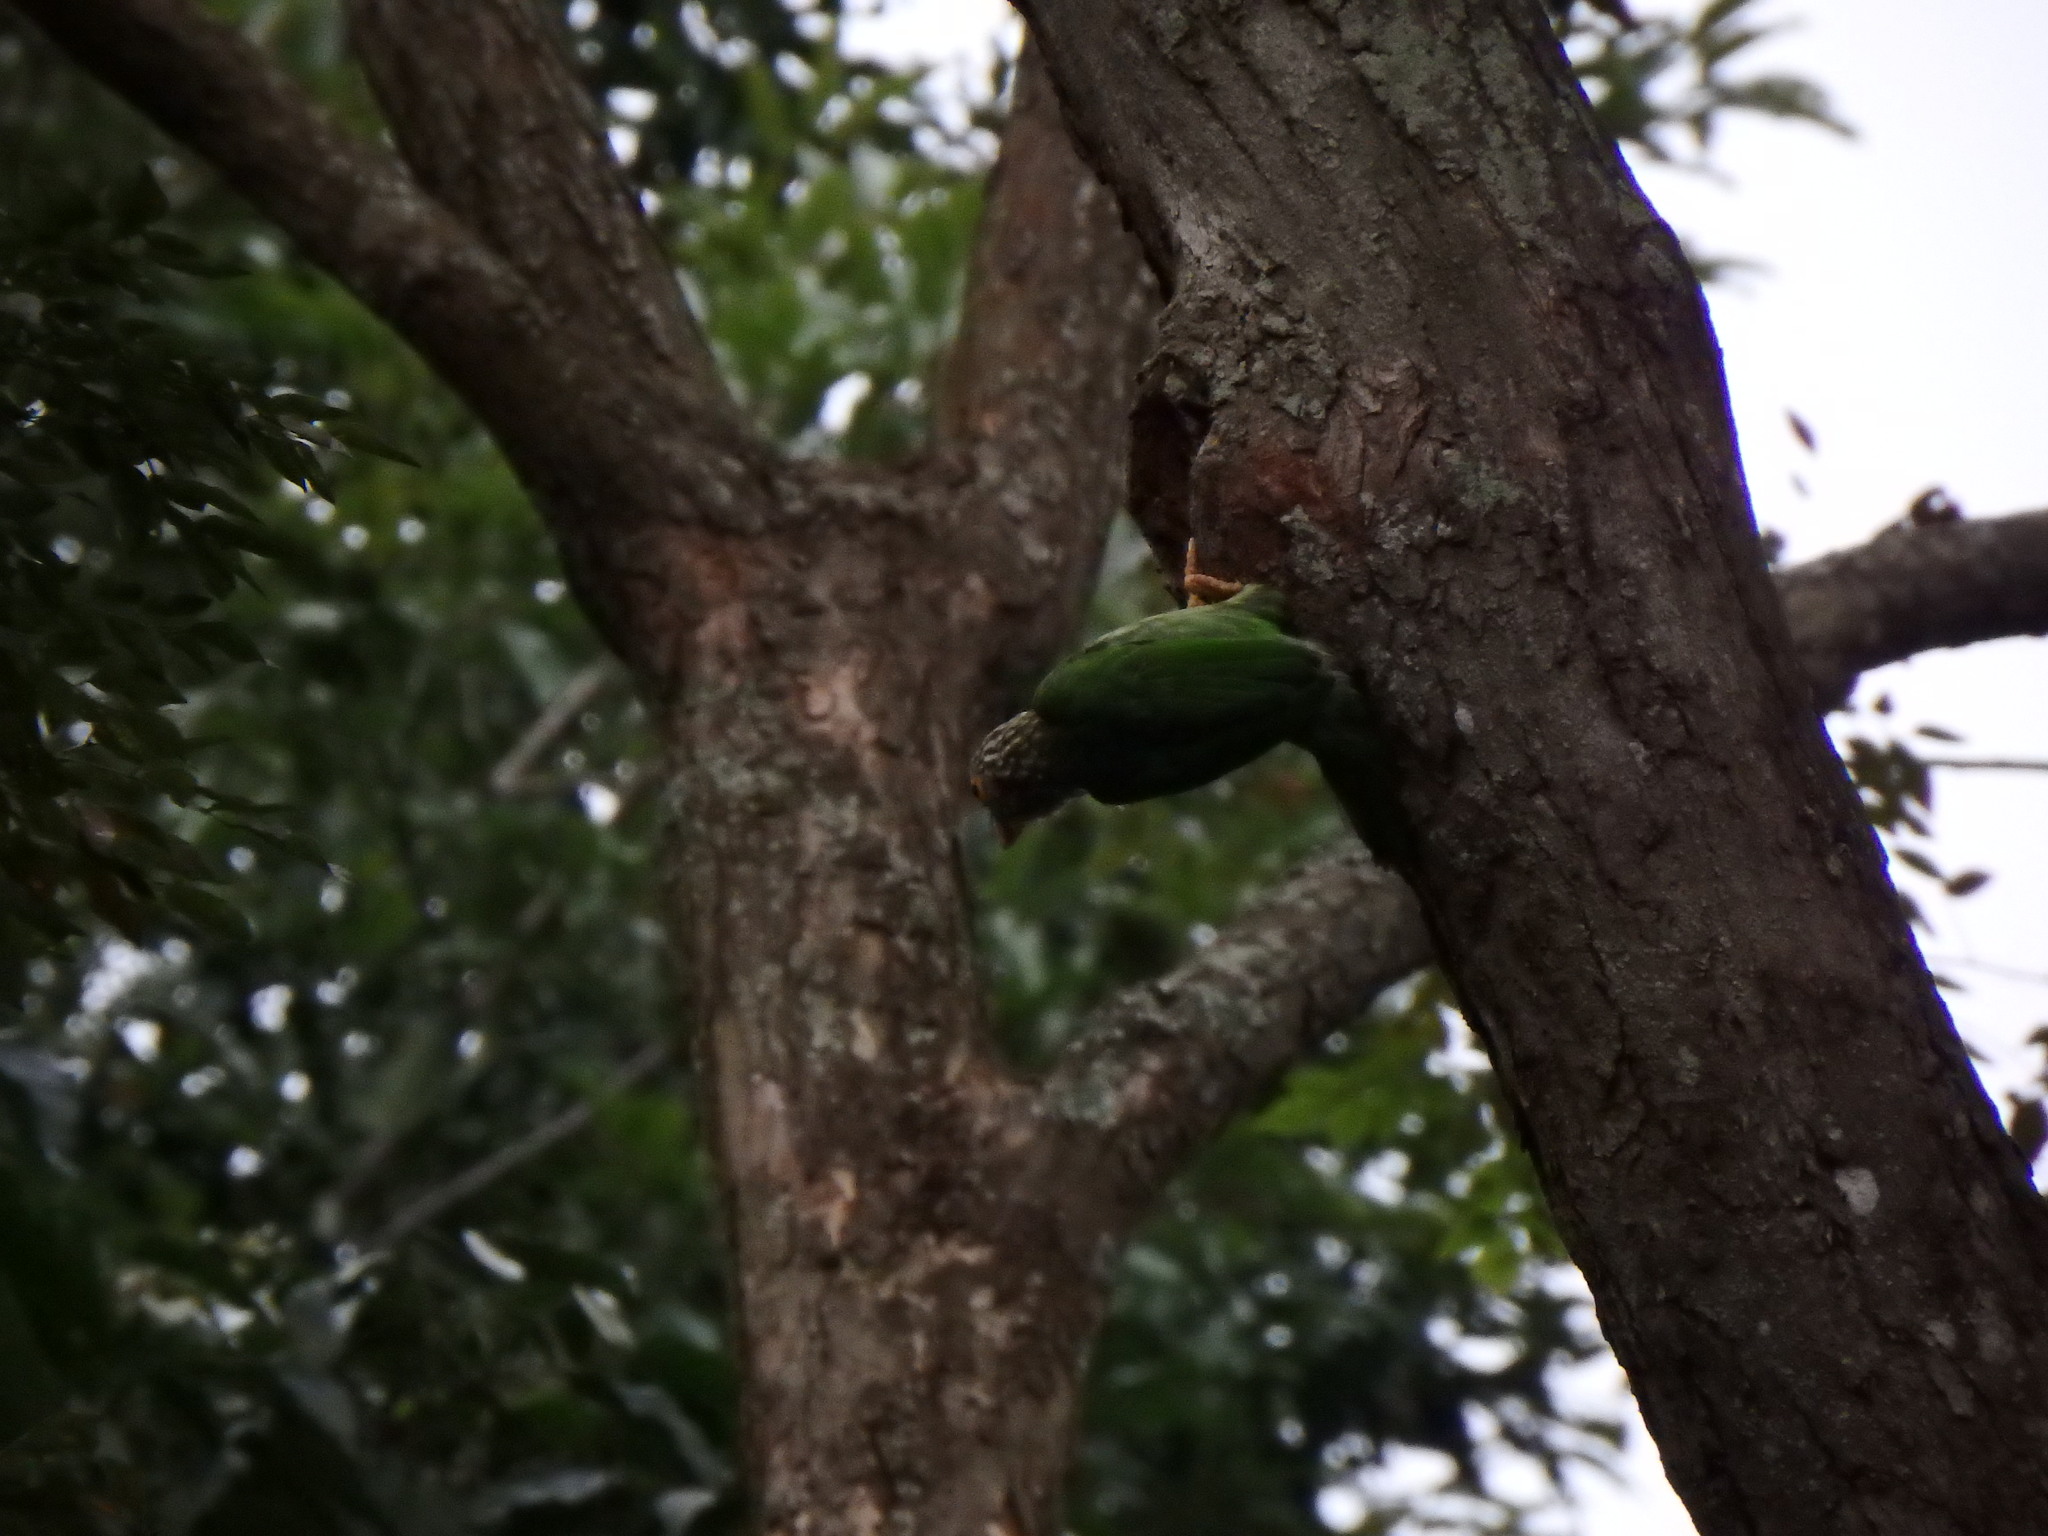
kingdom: Animalia
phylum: Chordata
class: Aves
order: Piciformes
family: Megalaimidae
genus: Psilopogon
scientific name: Psilopogon lineatus
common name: Lineated barbet
